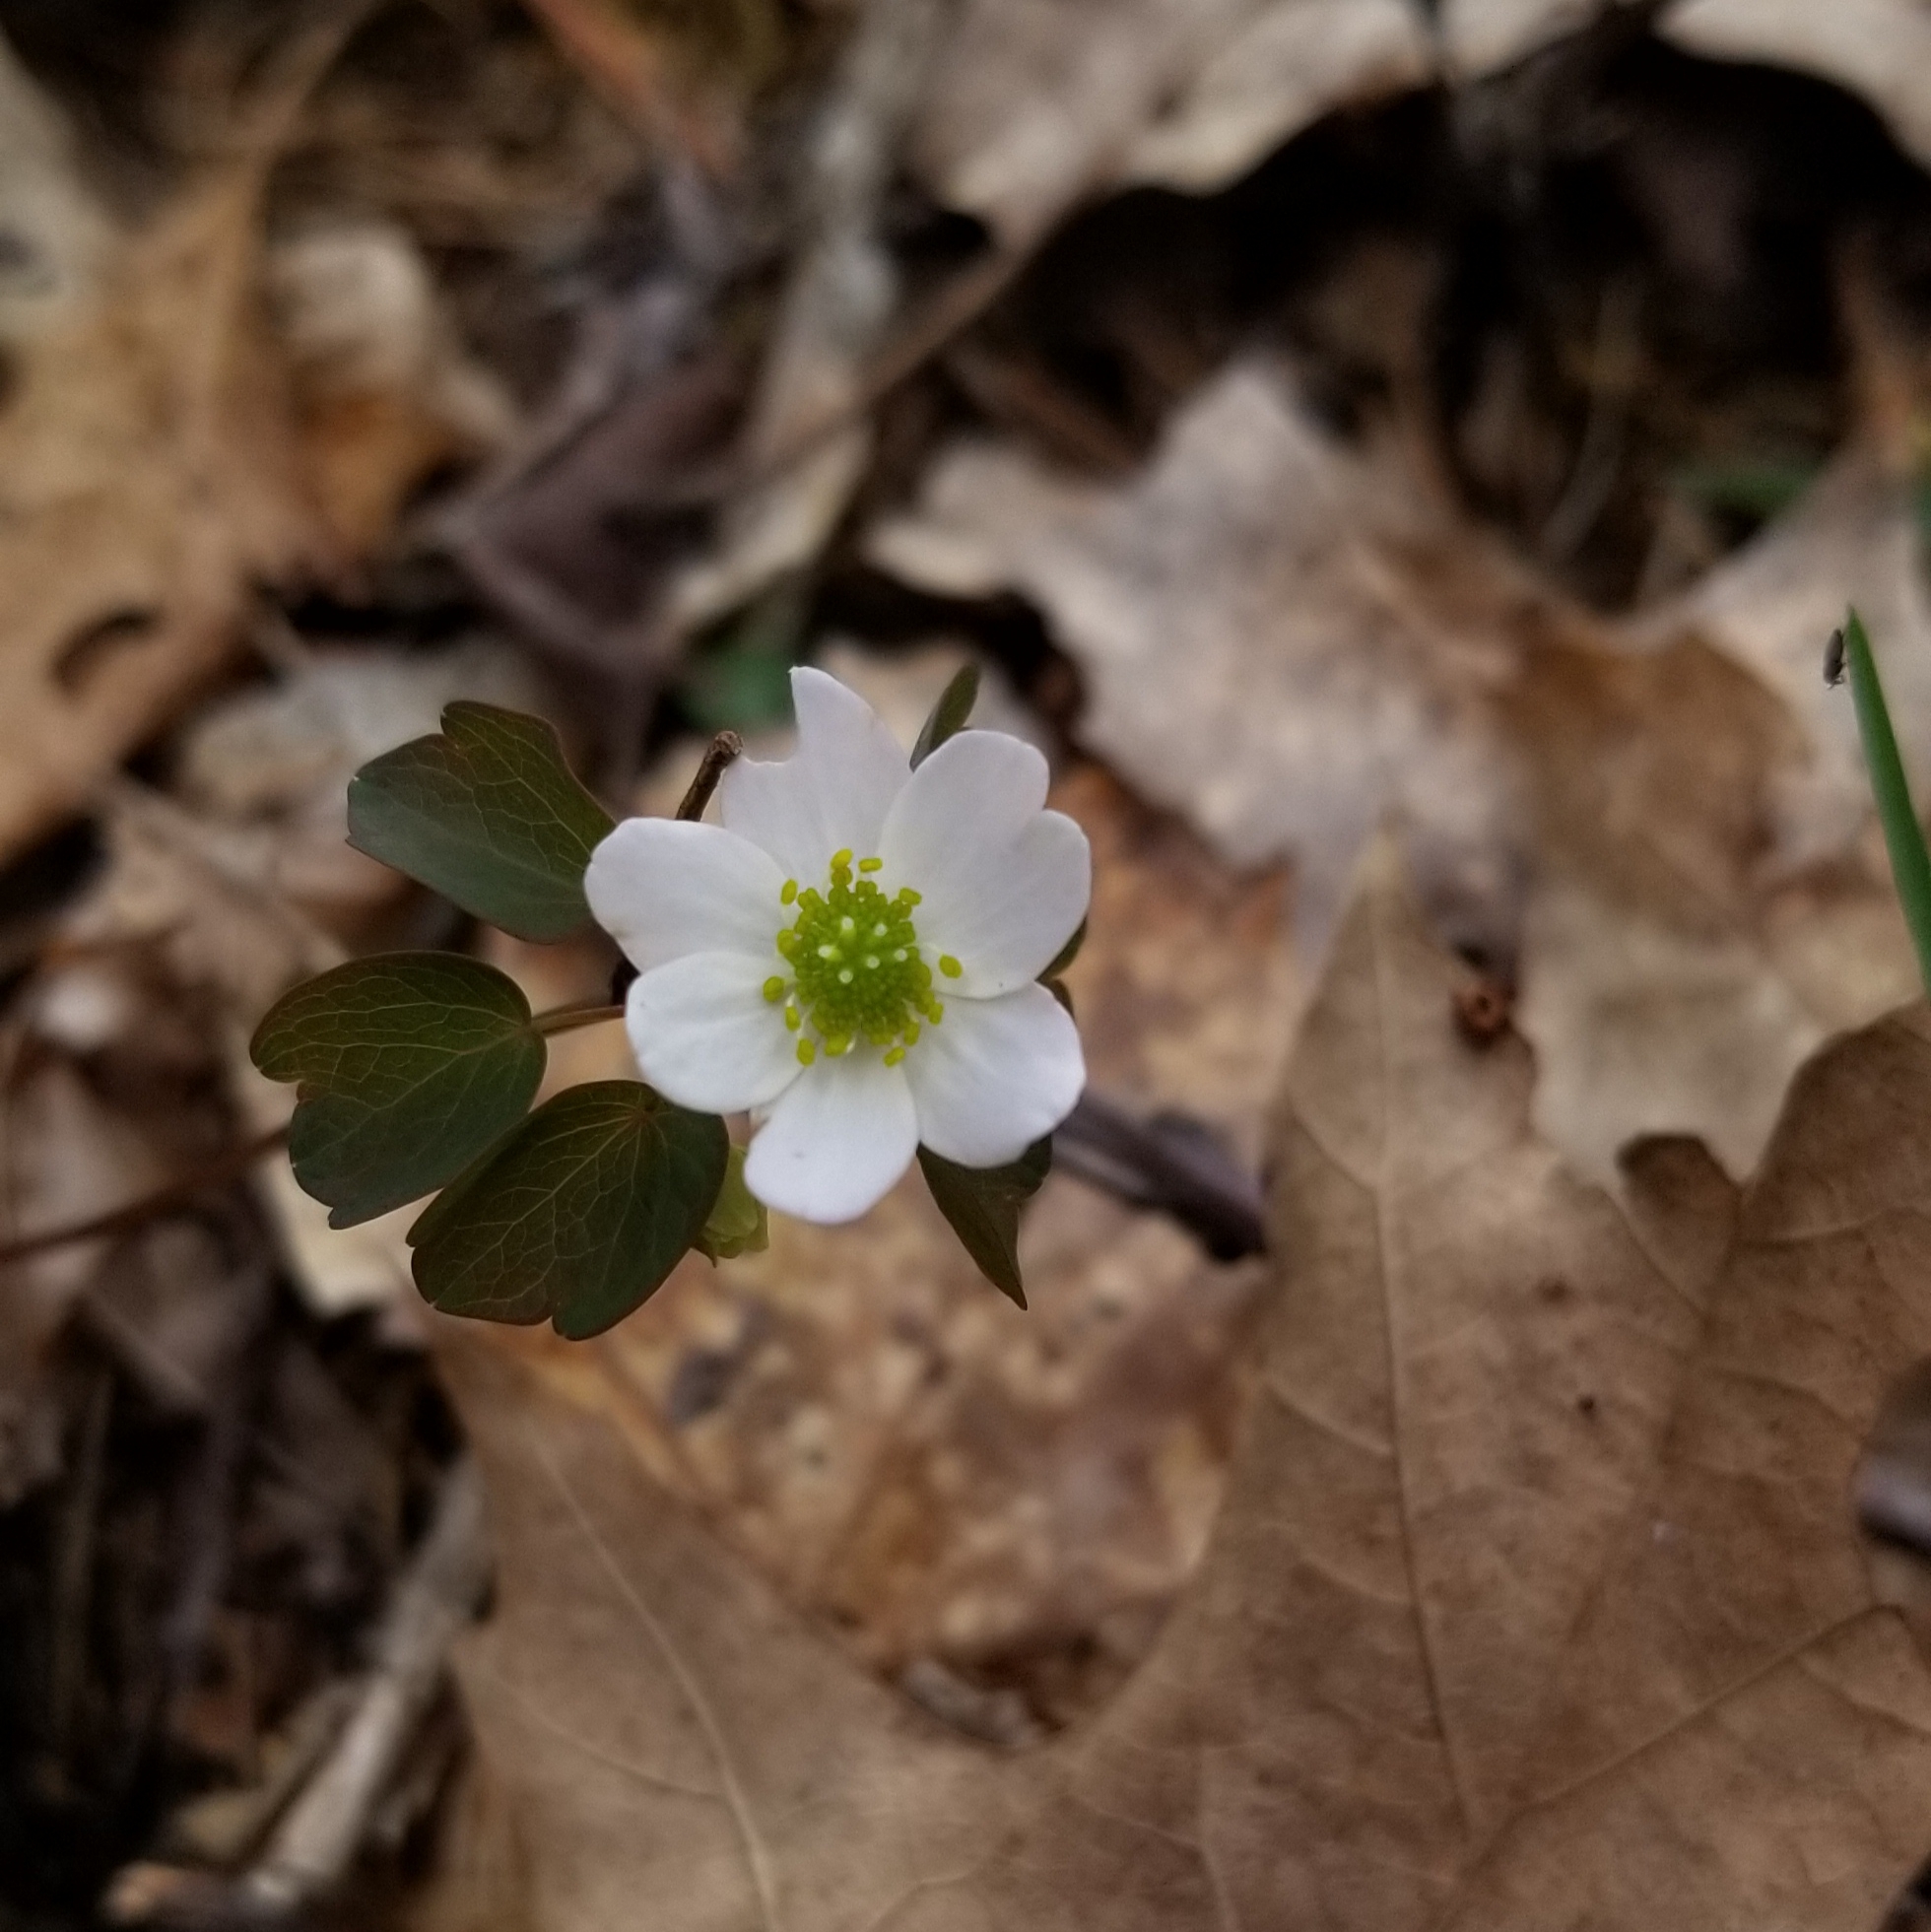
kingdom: Plantae
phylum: Tracheophyta
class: Magnoliopsida
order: Ranunculales
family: Ranunculaceae
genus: Thalictrum
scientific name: Thalictrum thalictroides
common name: Rue-anemone
